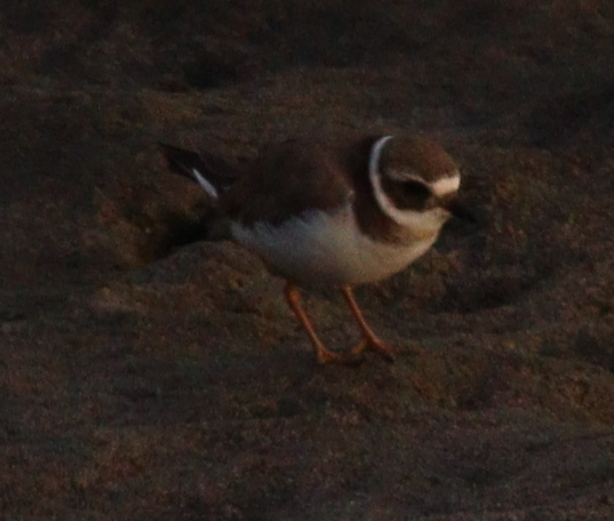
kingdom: Animalia
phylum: Chordata
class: Aves
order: Charadriiformes
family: Charadriidae
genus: Charadrius
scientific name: Charadrius hiaticula
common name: Common ringed plover
